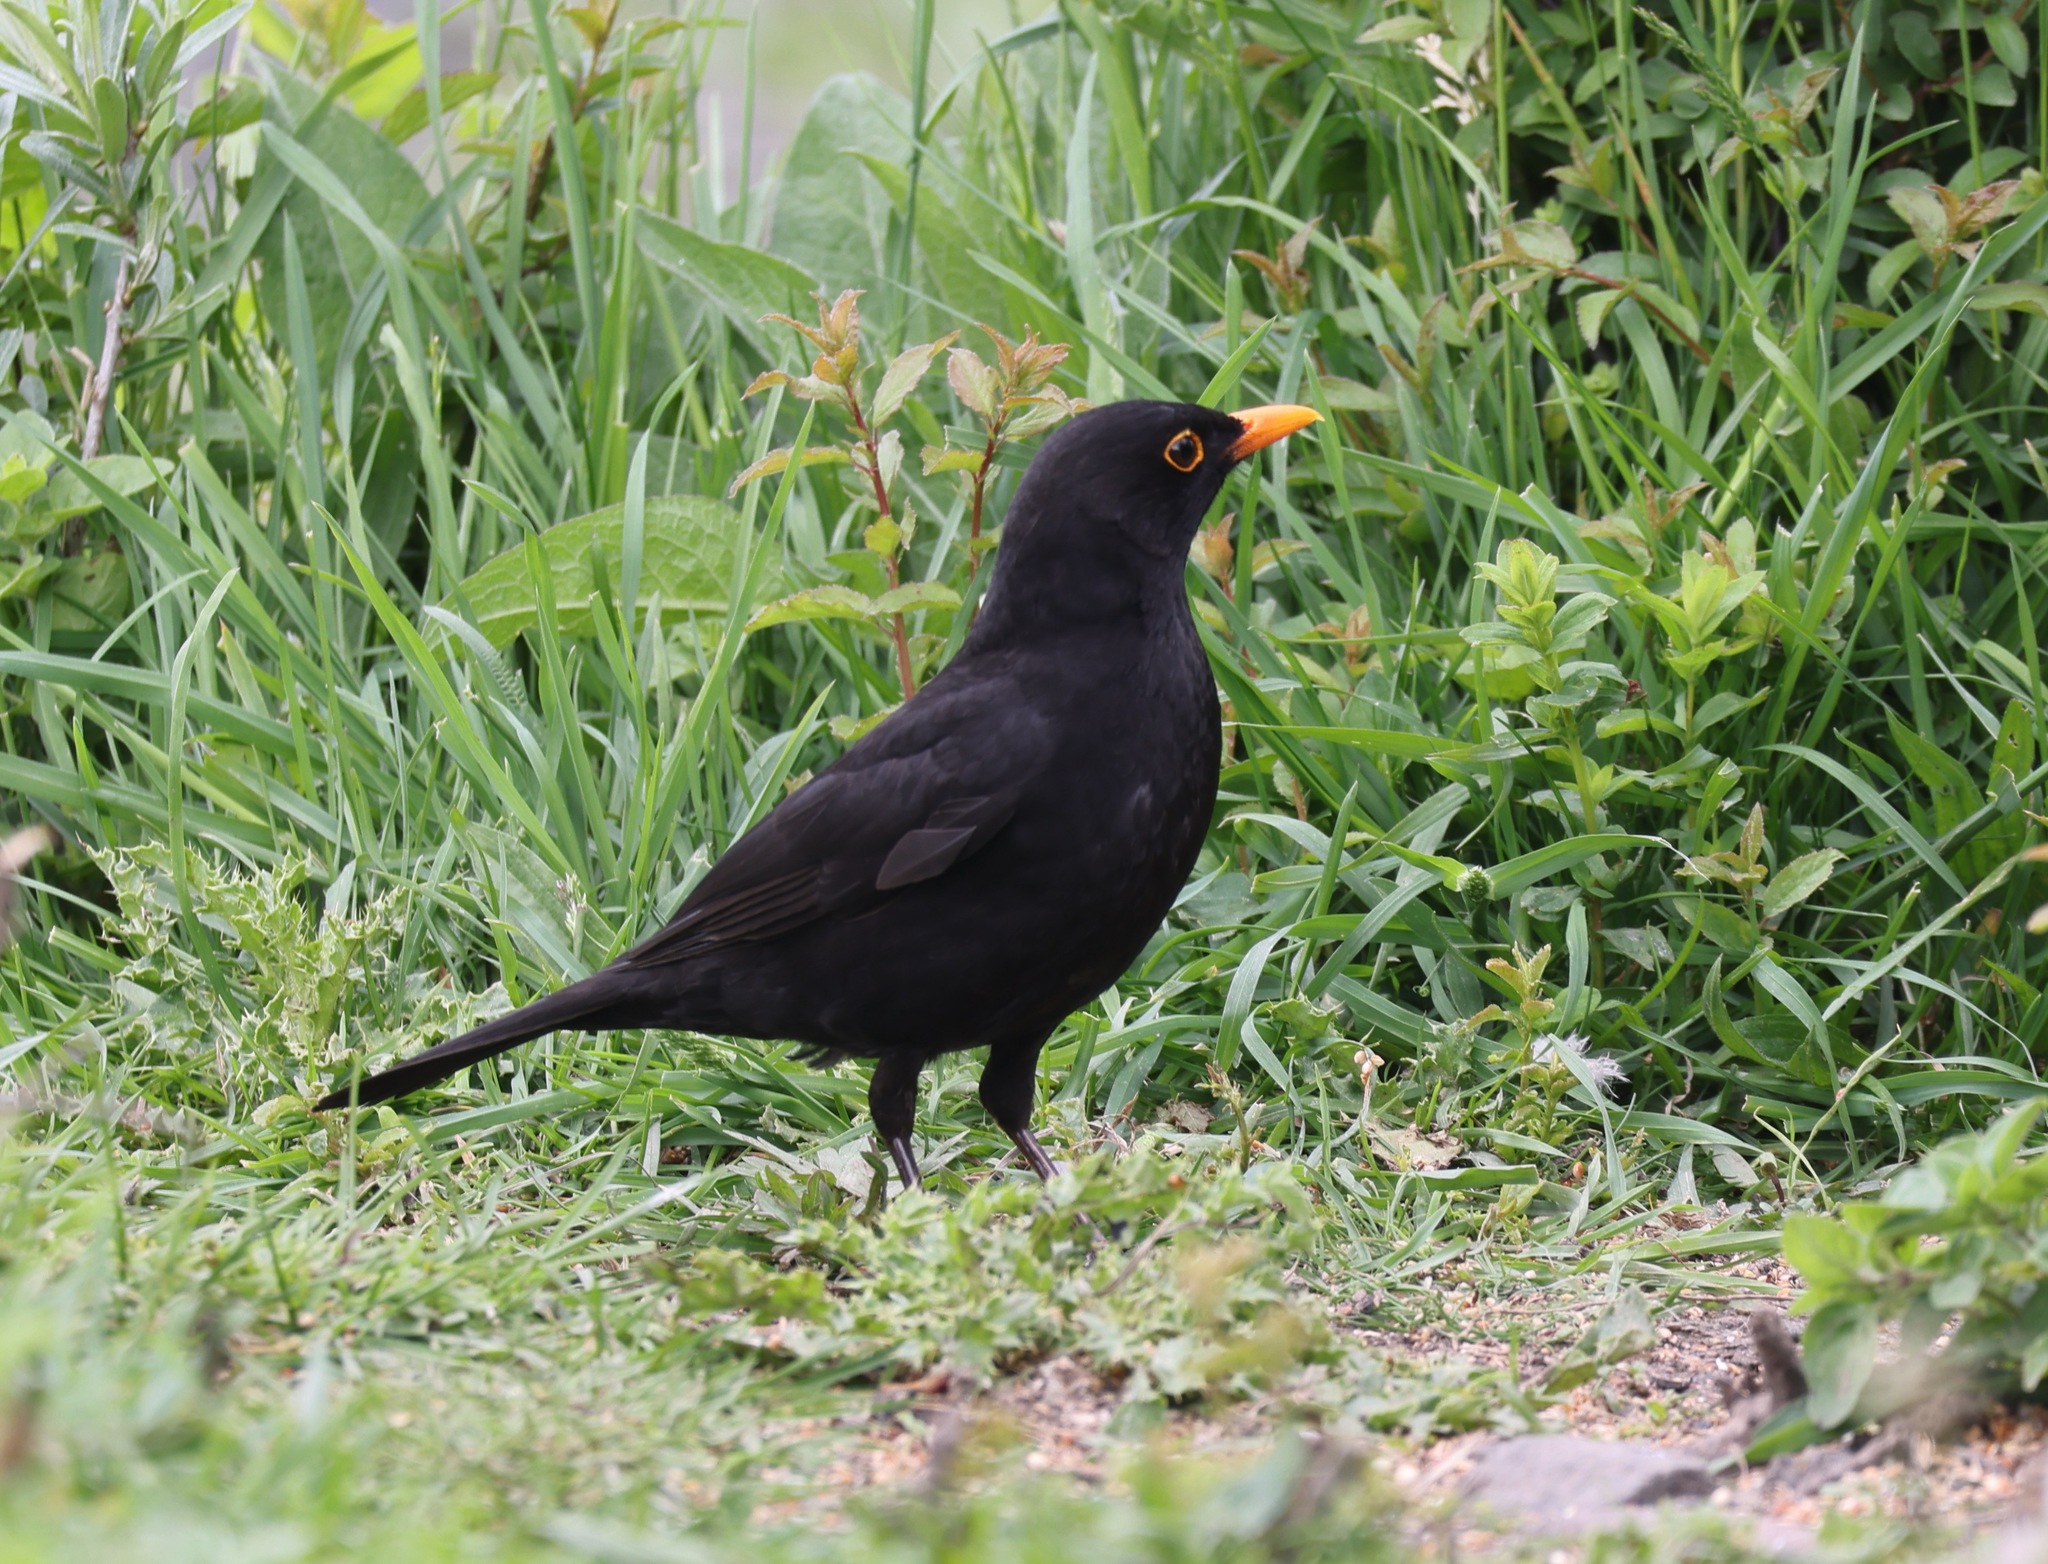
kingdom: Animalia
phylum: Chordata
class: Aves
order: Passeriformes
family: Turdidae
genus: Turdus
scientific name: Turdus merula
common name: Common blackbird
